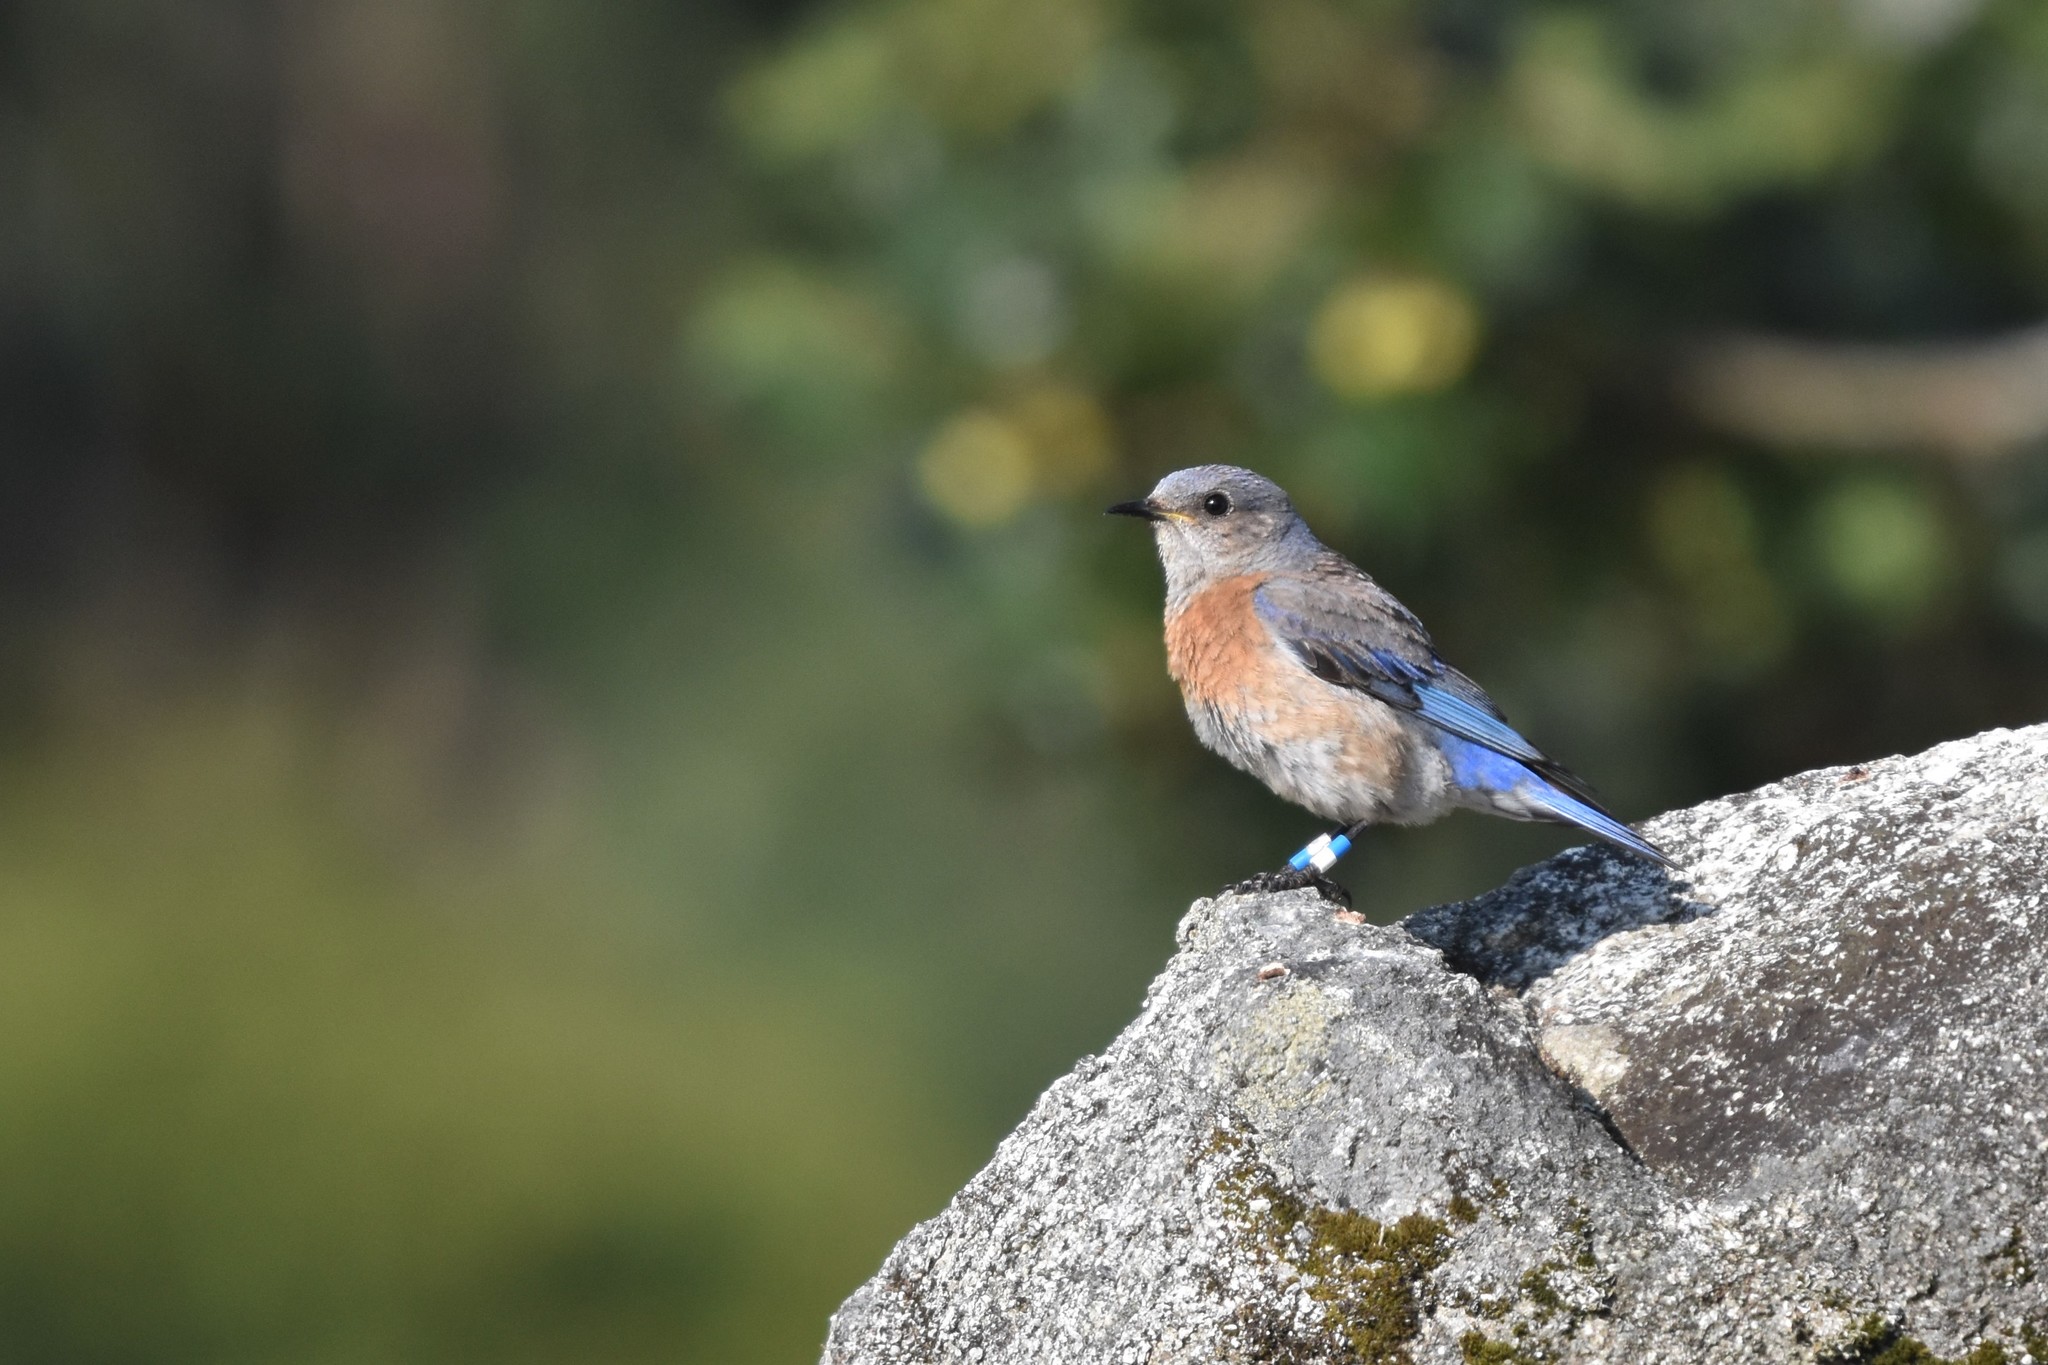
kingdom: Animalia
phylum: Chordata
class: Aves
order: Passeriformes
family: Turdidae
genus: Sialia
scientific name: Sialia mexicana
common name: Western bluebird
